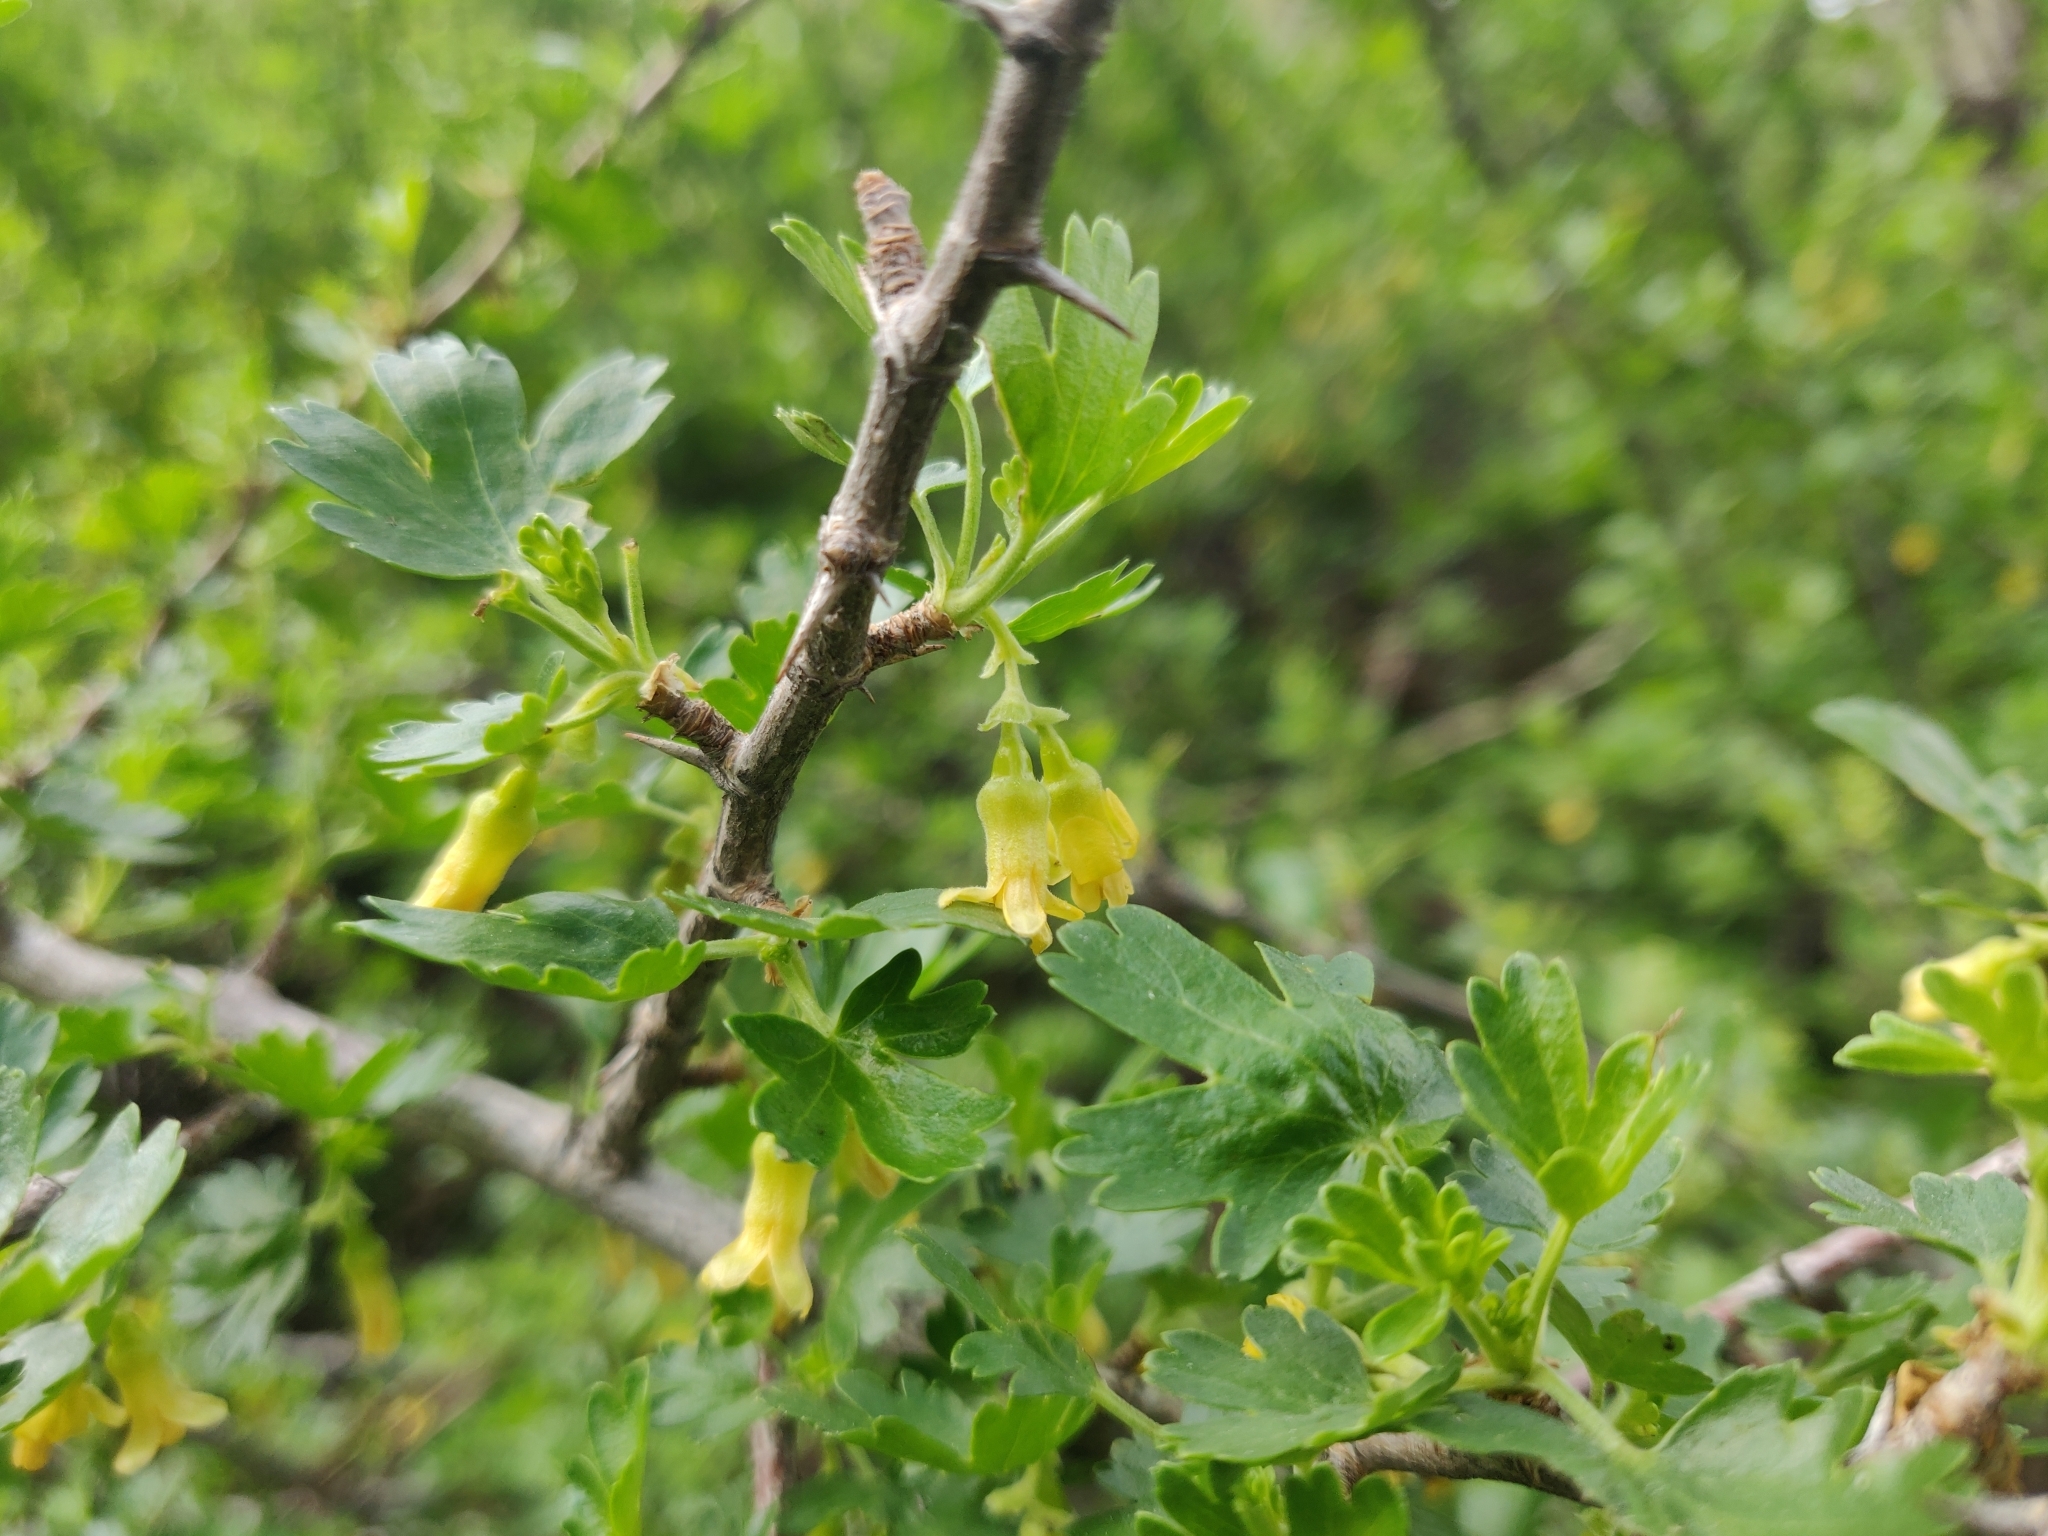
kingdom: Plantae
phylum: Tracheophyta
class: Magnoliopsida
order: Saxifragales
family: Grossulariaceae
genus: Ribes
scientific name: Ribes quercetorum
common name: Oak gooseberry
